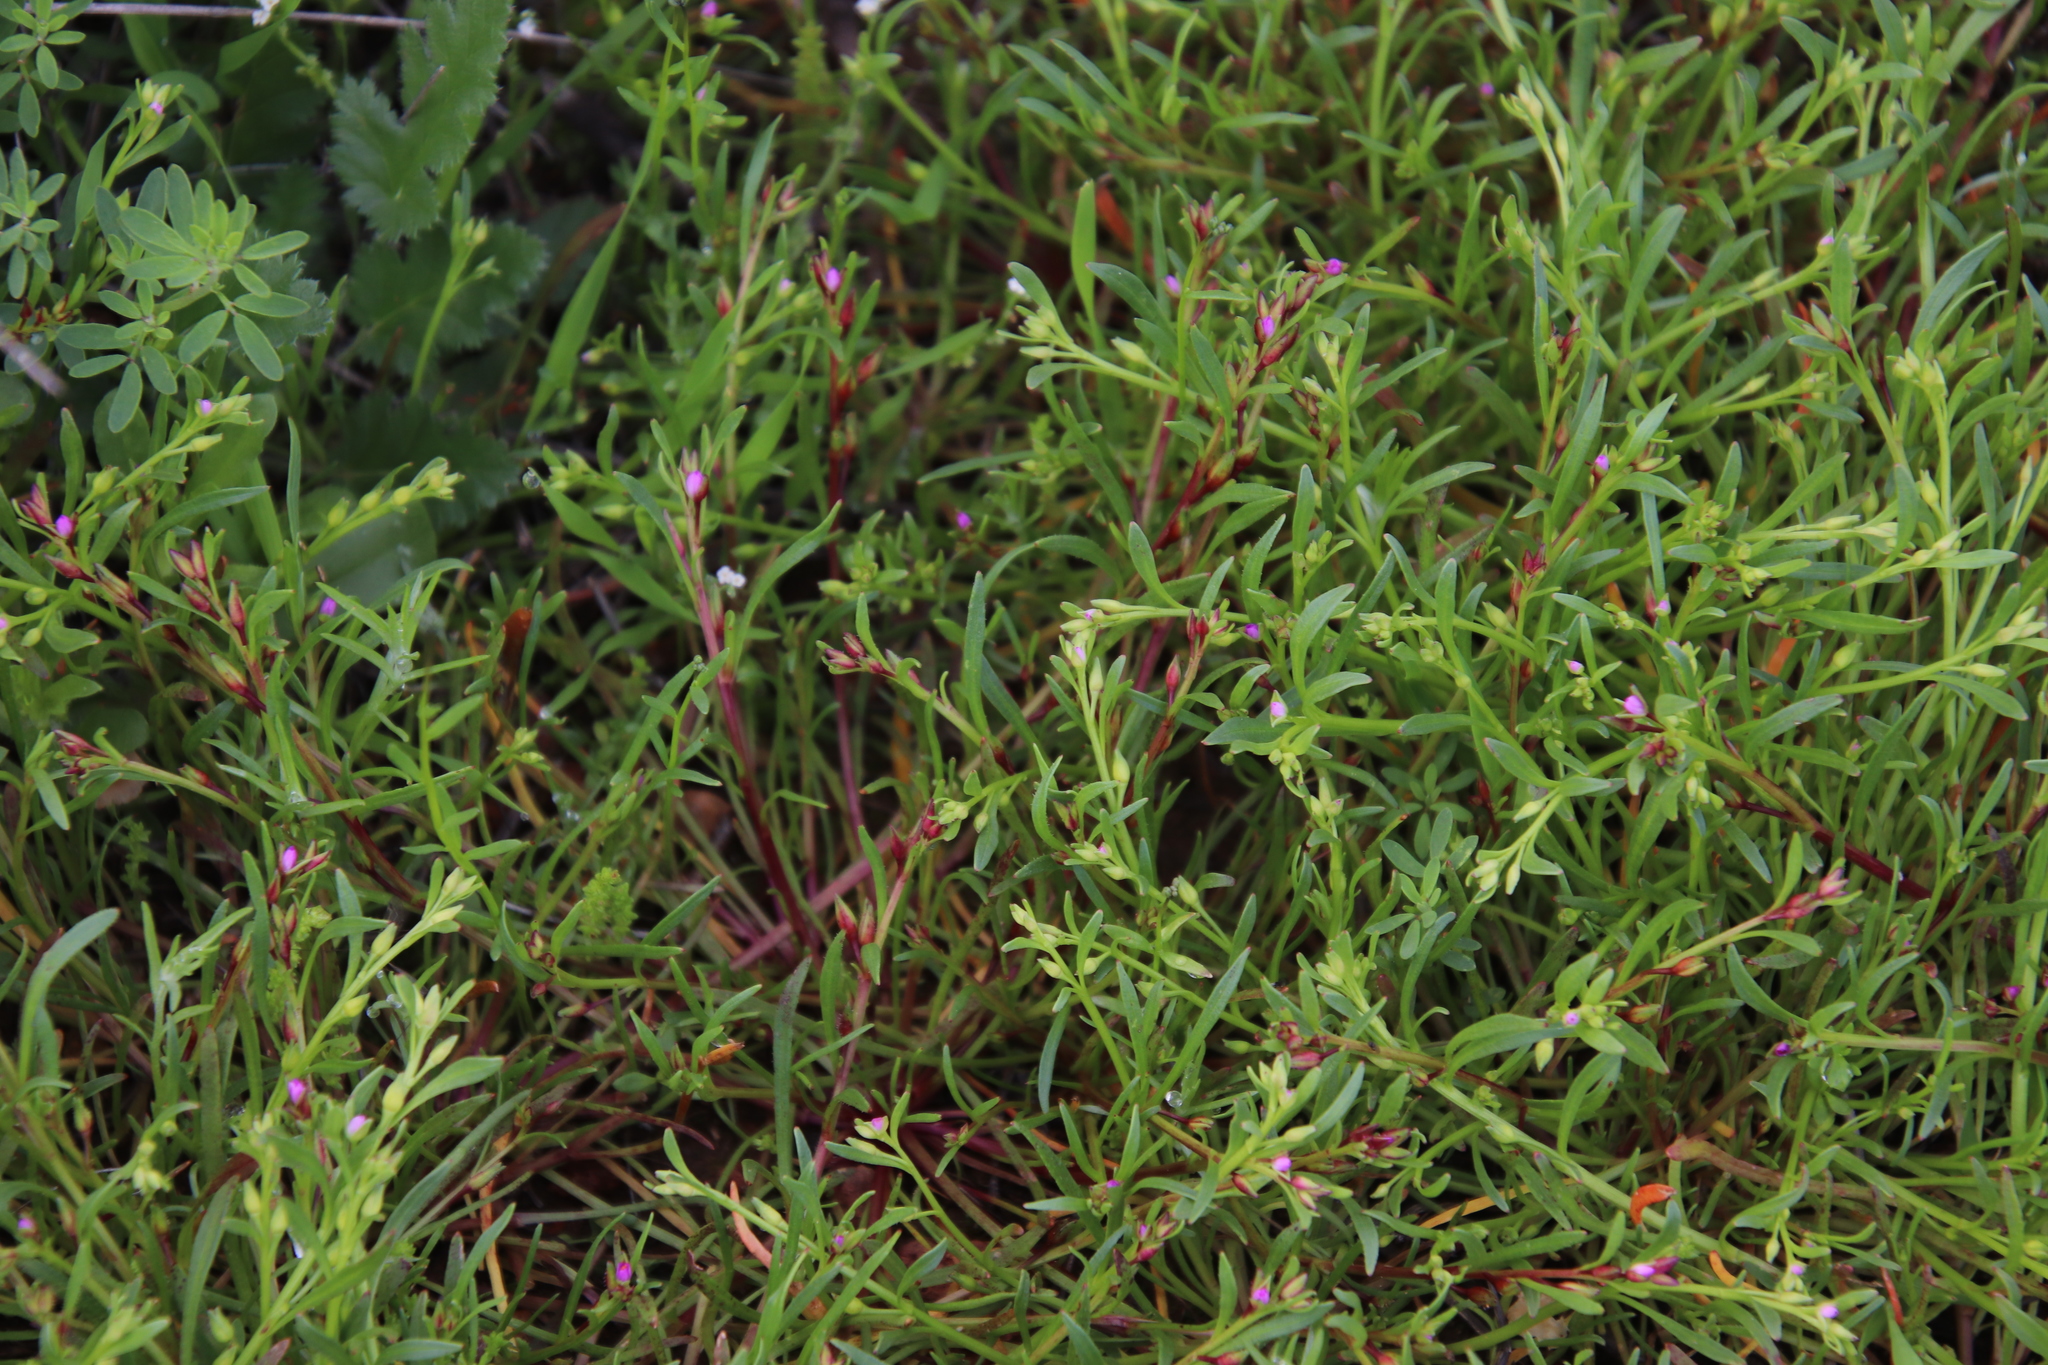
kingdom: Plantae
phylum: Tracheophyta
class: Magnoliopsida
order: Caryophyllales
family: Montiaceae
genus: Calandrinia
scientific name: Calandrinia menziesii
